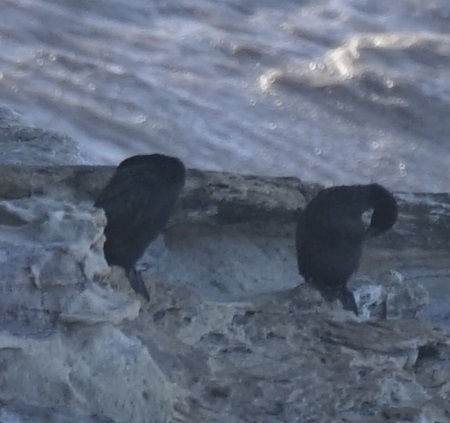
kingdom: Animalia
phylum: Chordata
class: Aves
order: Suliformes
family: Phalacrocoracidae
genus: Phalacrocorax
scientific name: Phalacrocorax sulcirostris
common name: Little black cormorant
